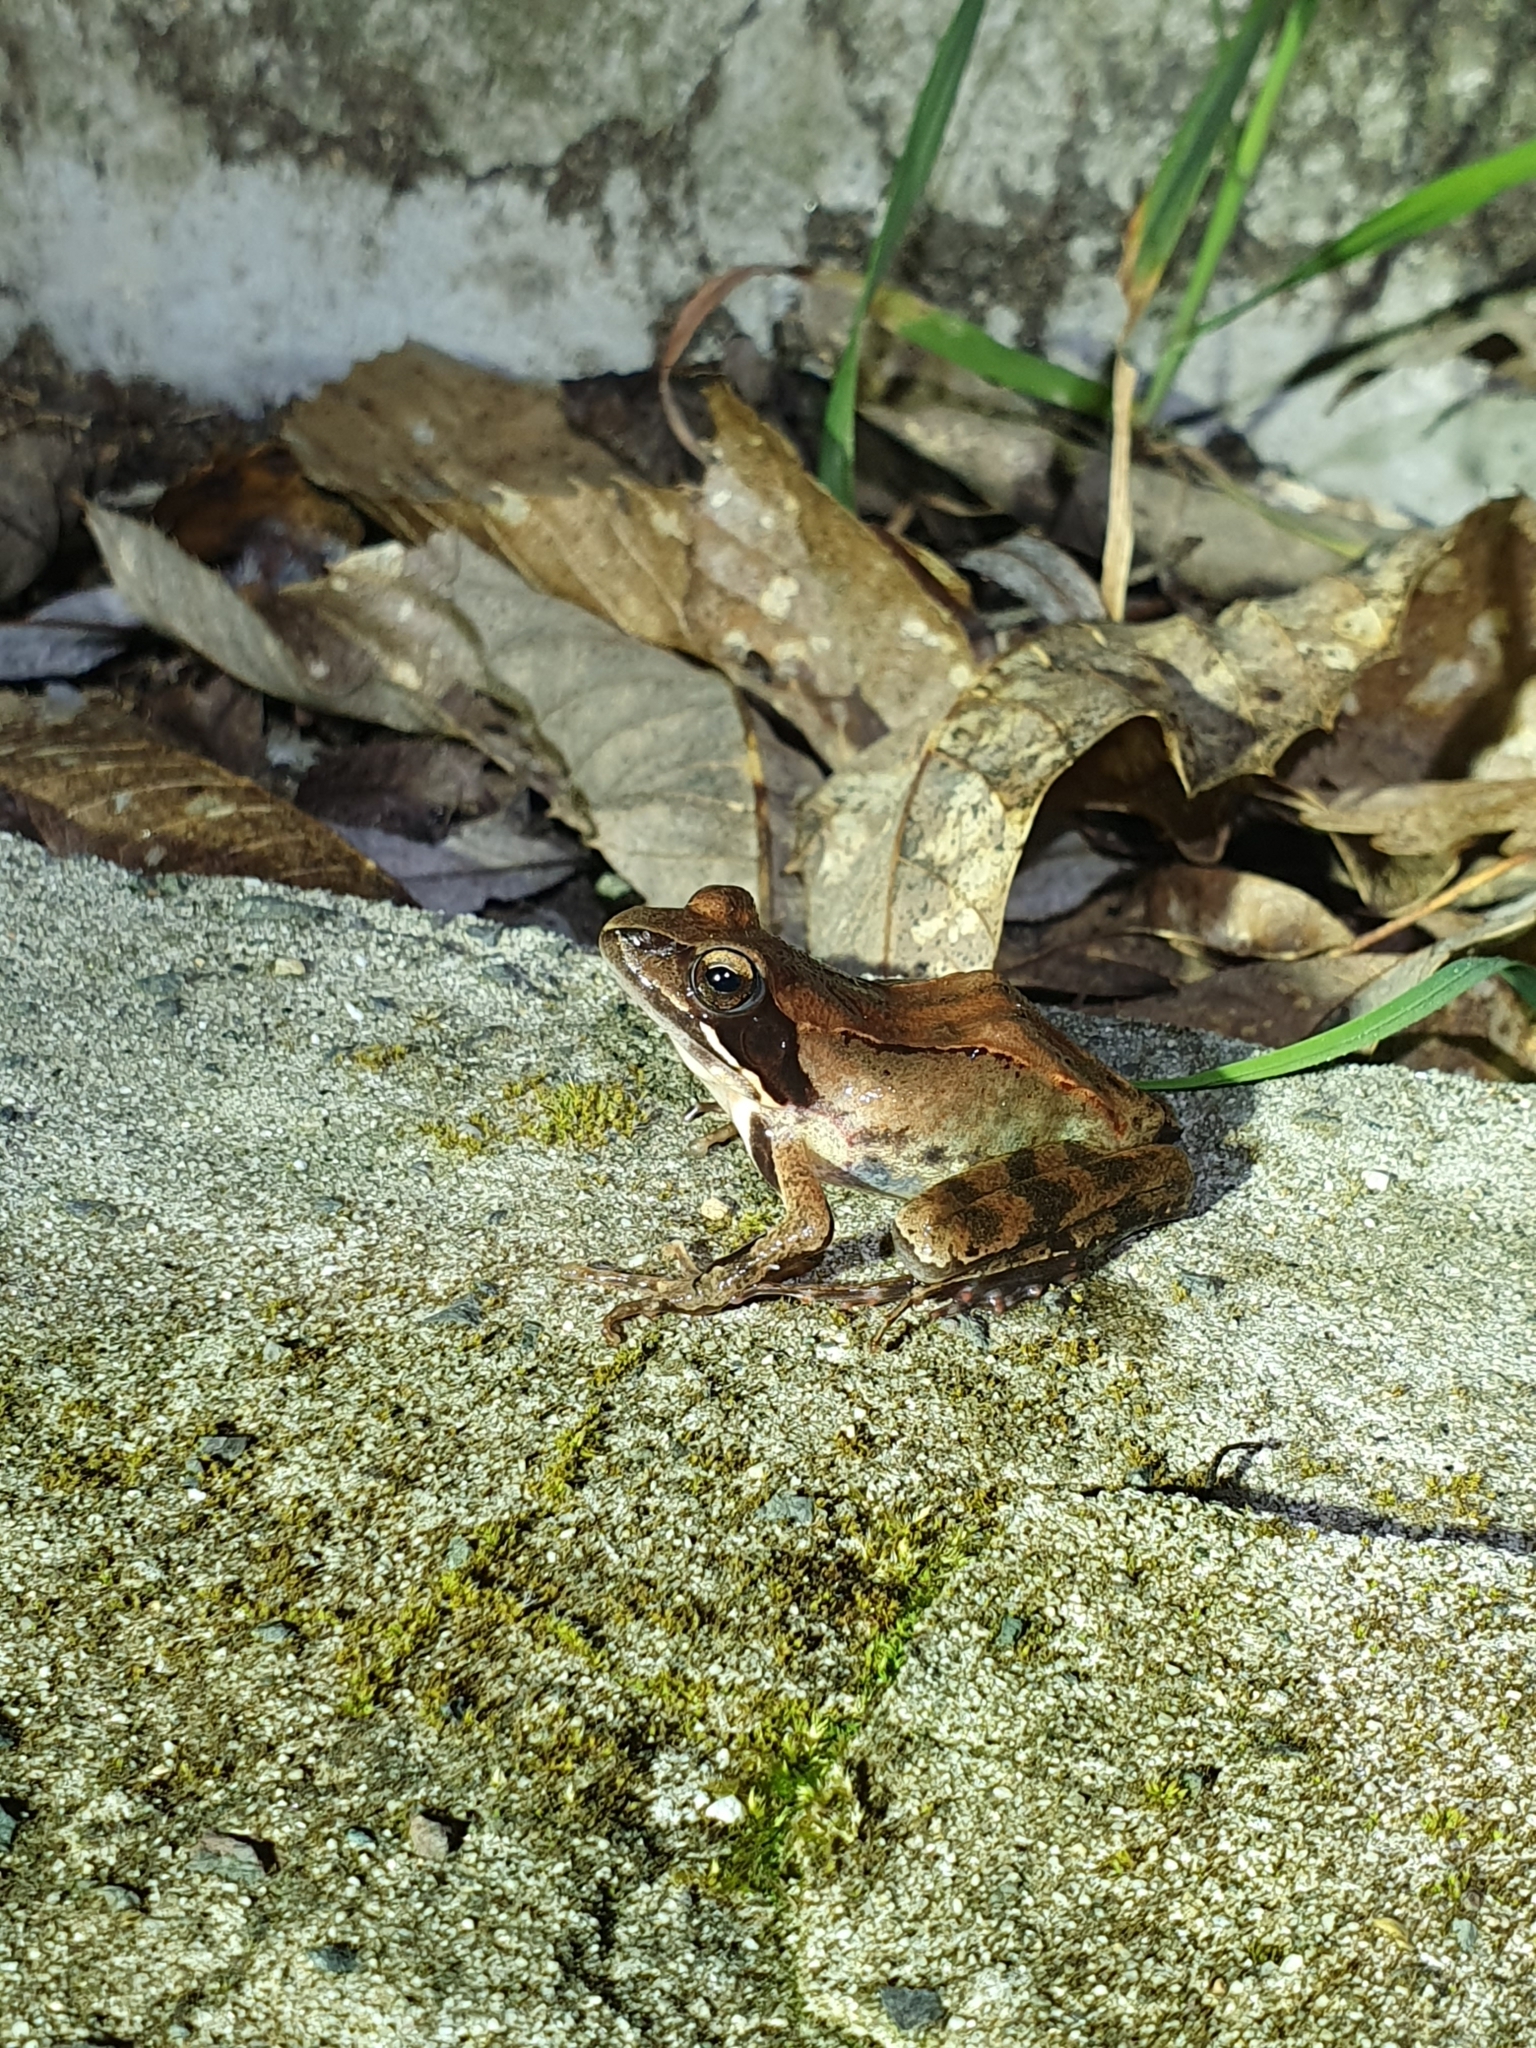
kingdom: Animalia
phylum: Chordata
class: Amphibia
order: Anura
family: Ranidae
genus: Rana
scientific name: Rana dalmatina
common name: Agile frog
